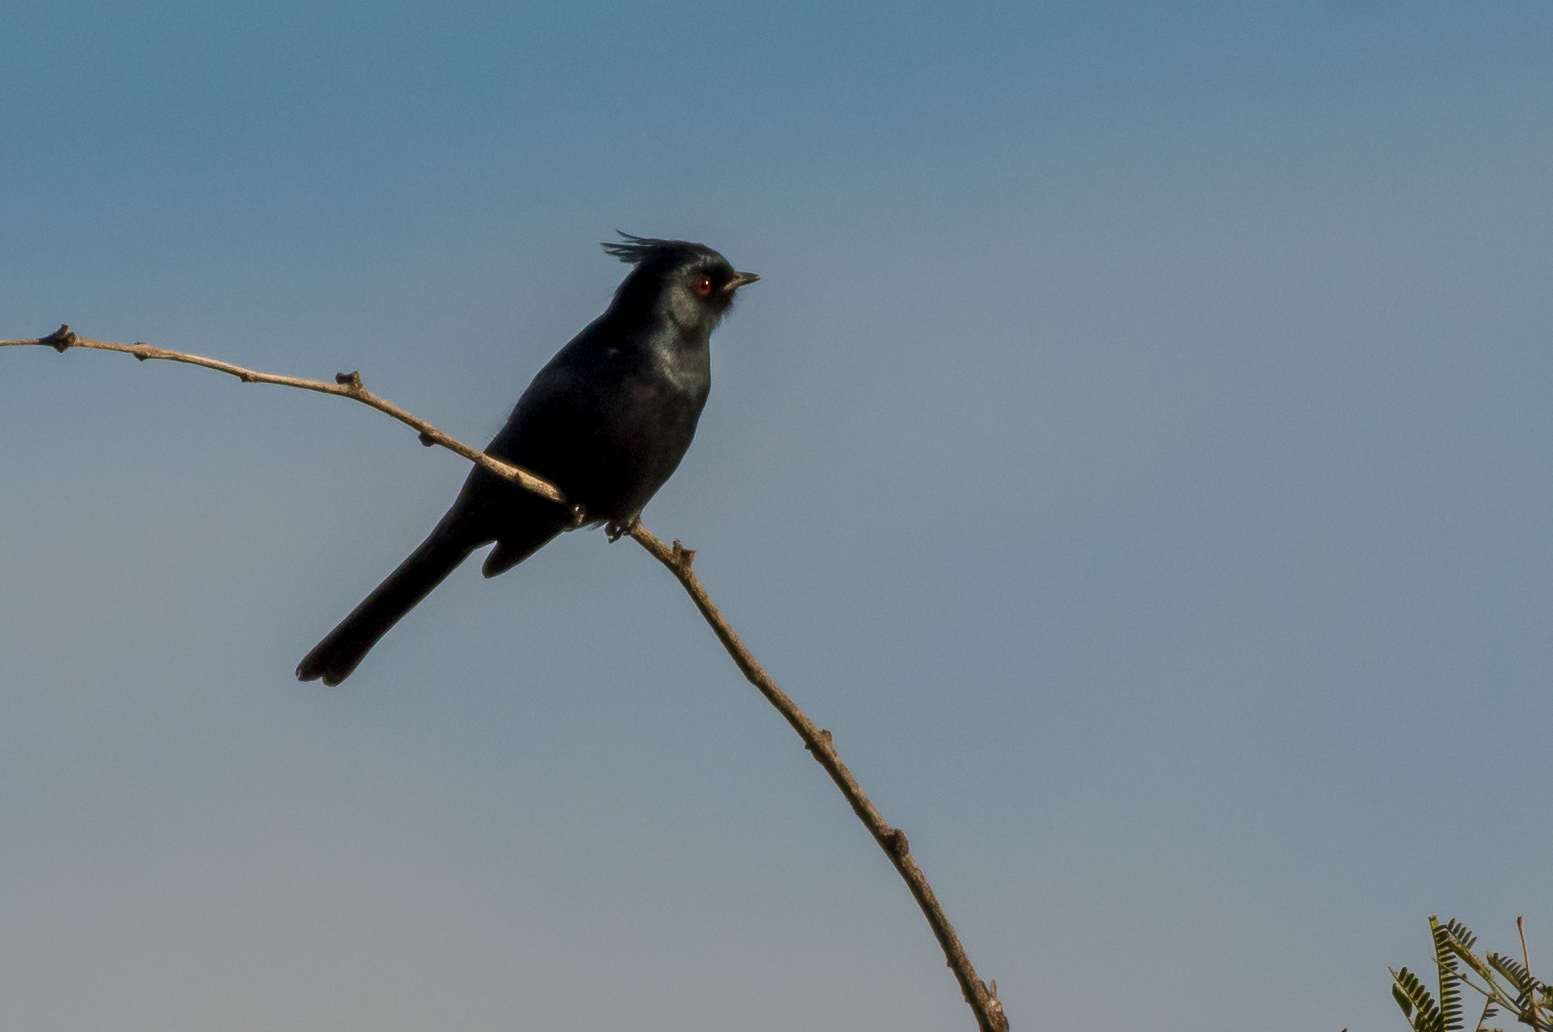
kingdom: Animalia
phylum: Chordata
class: Aves
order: Passeriformes
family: Ptilogonatidae
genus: Phainopepla
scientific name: Phainopepla nitens
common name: Phainopepla
